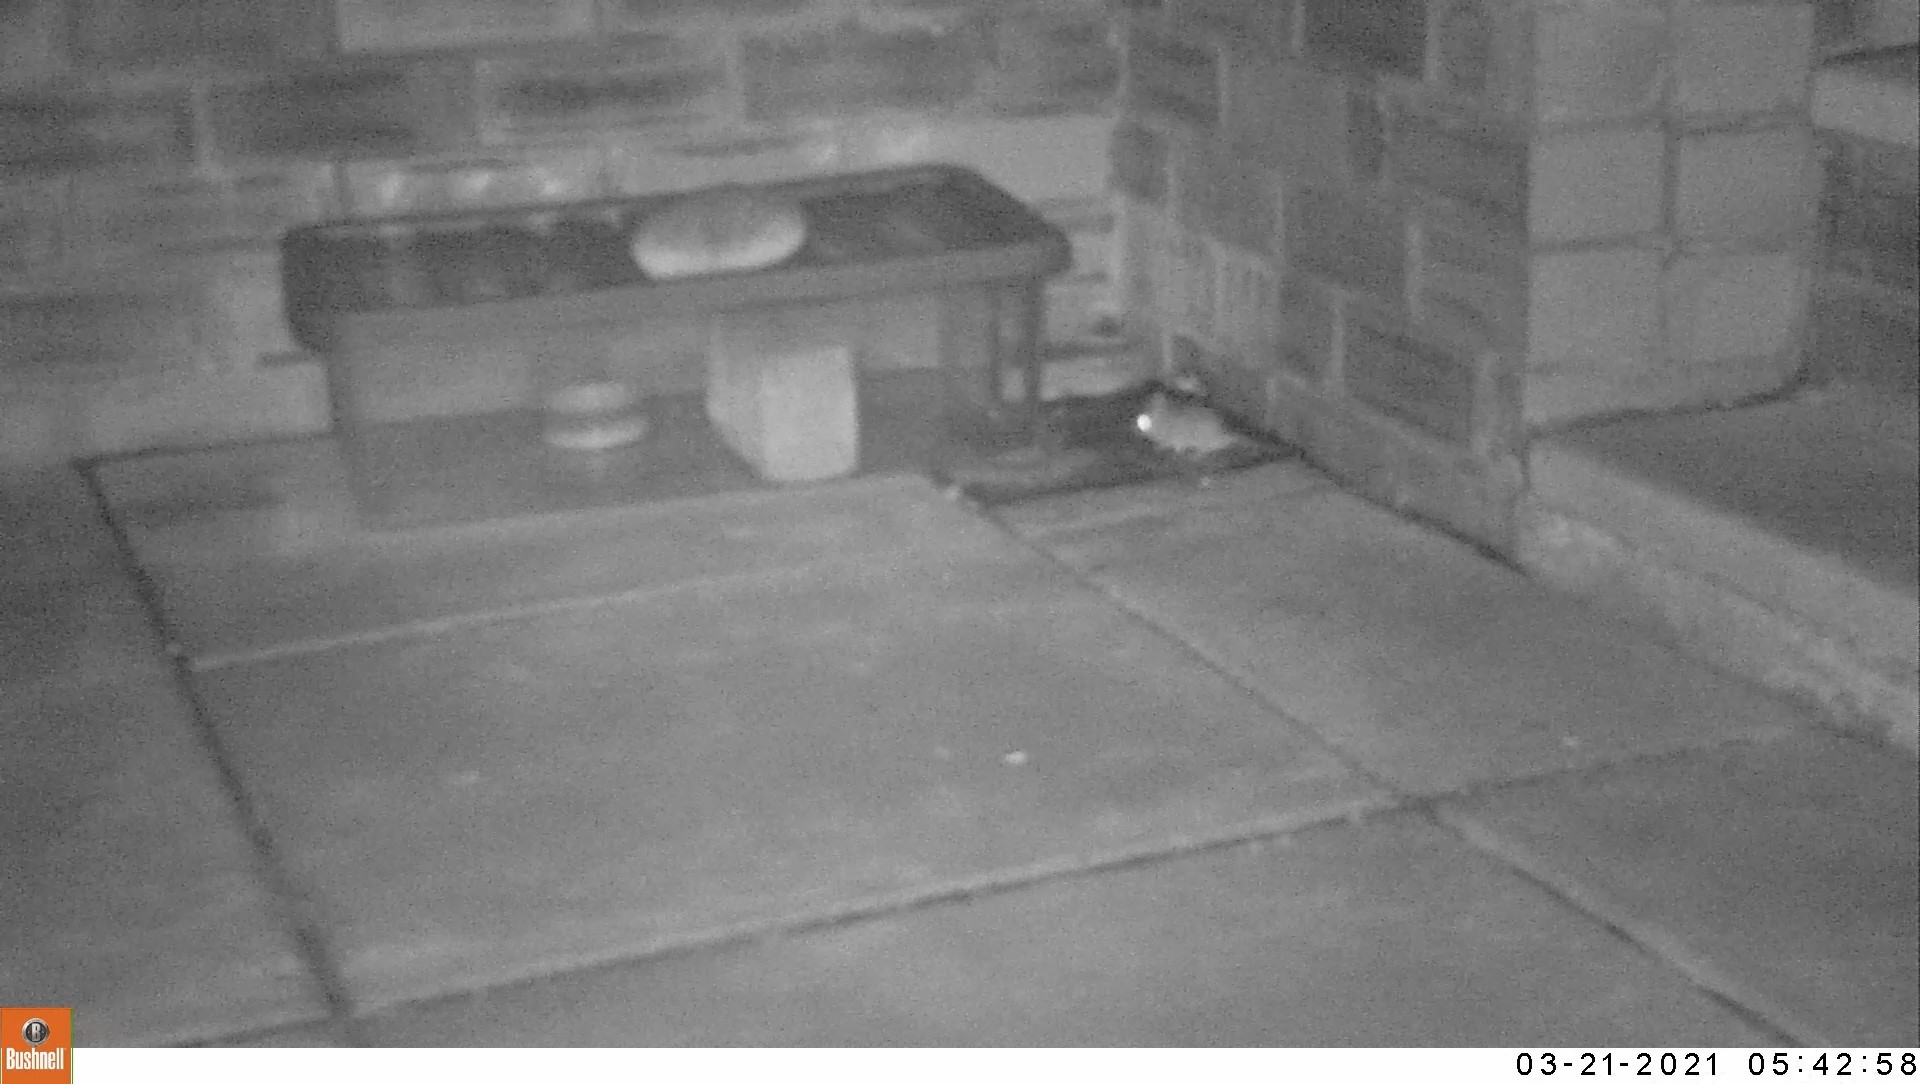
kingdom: Animalia
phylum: Chordata
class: Mammalia
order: Rodentia
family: Muridae
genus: Apodemus
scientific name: Apodemus sylvaticus
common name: Wood mouse
